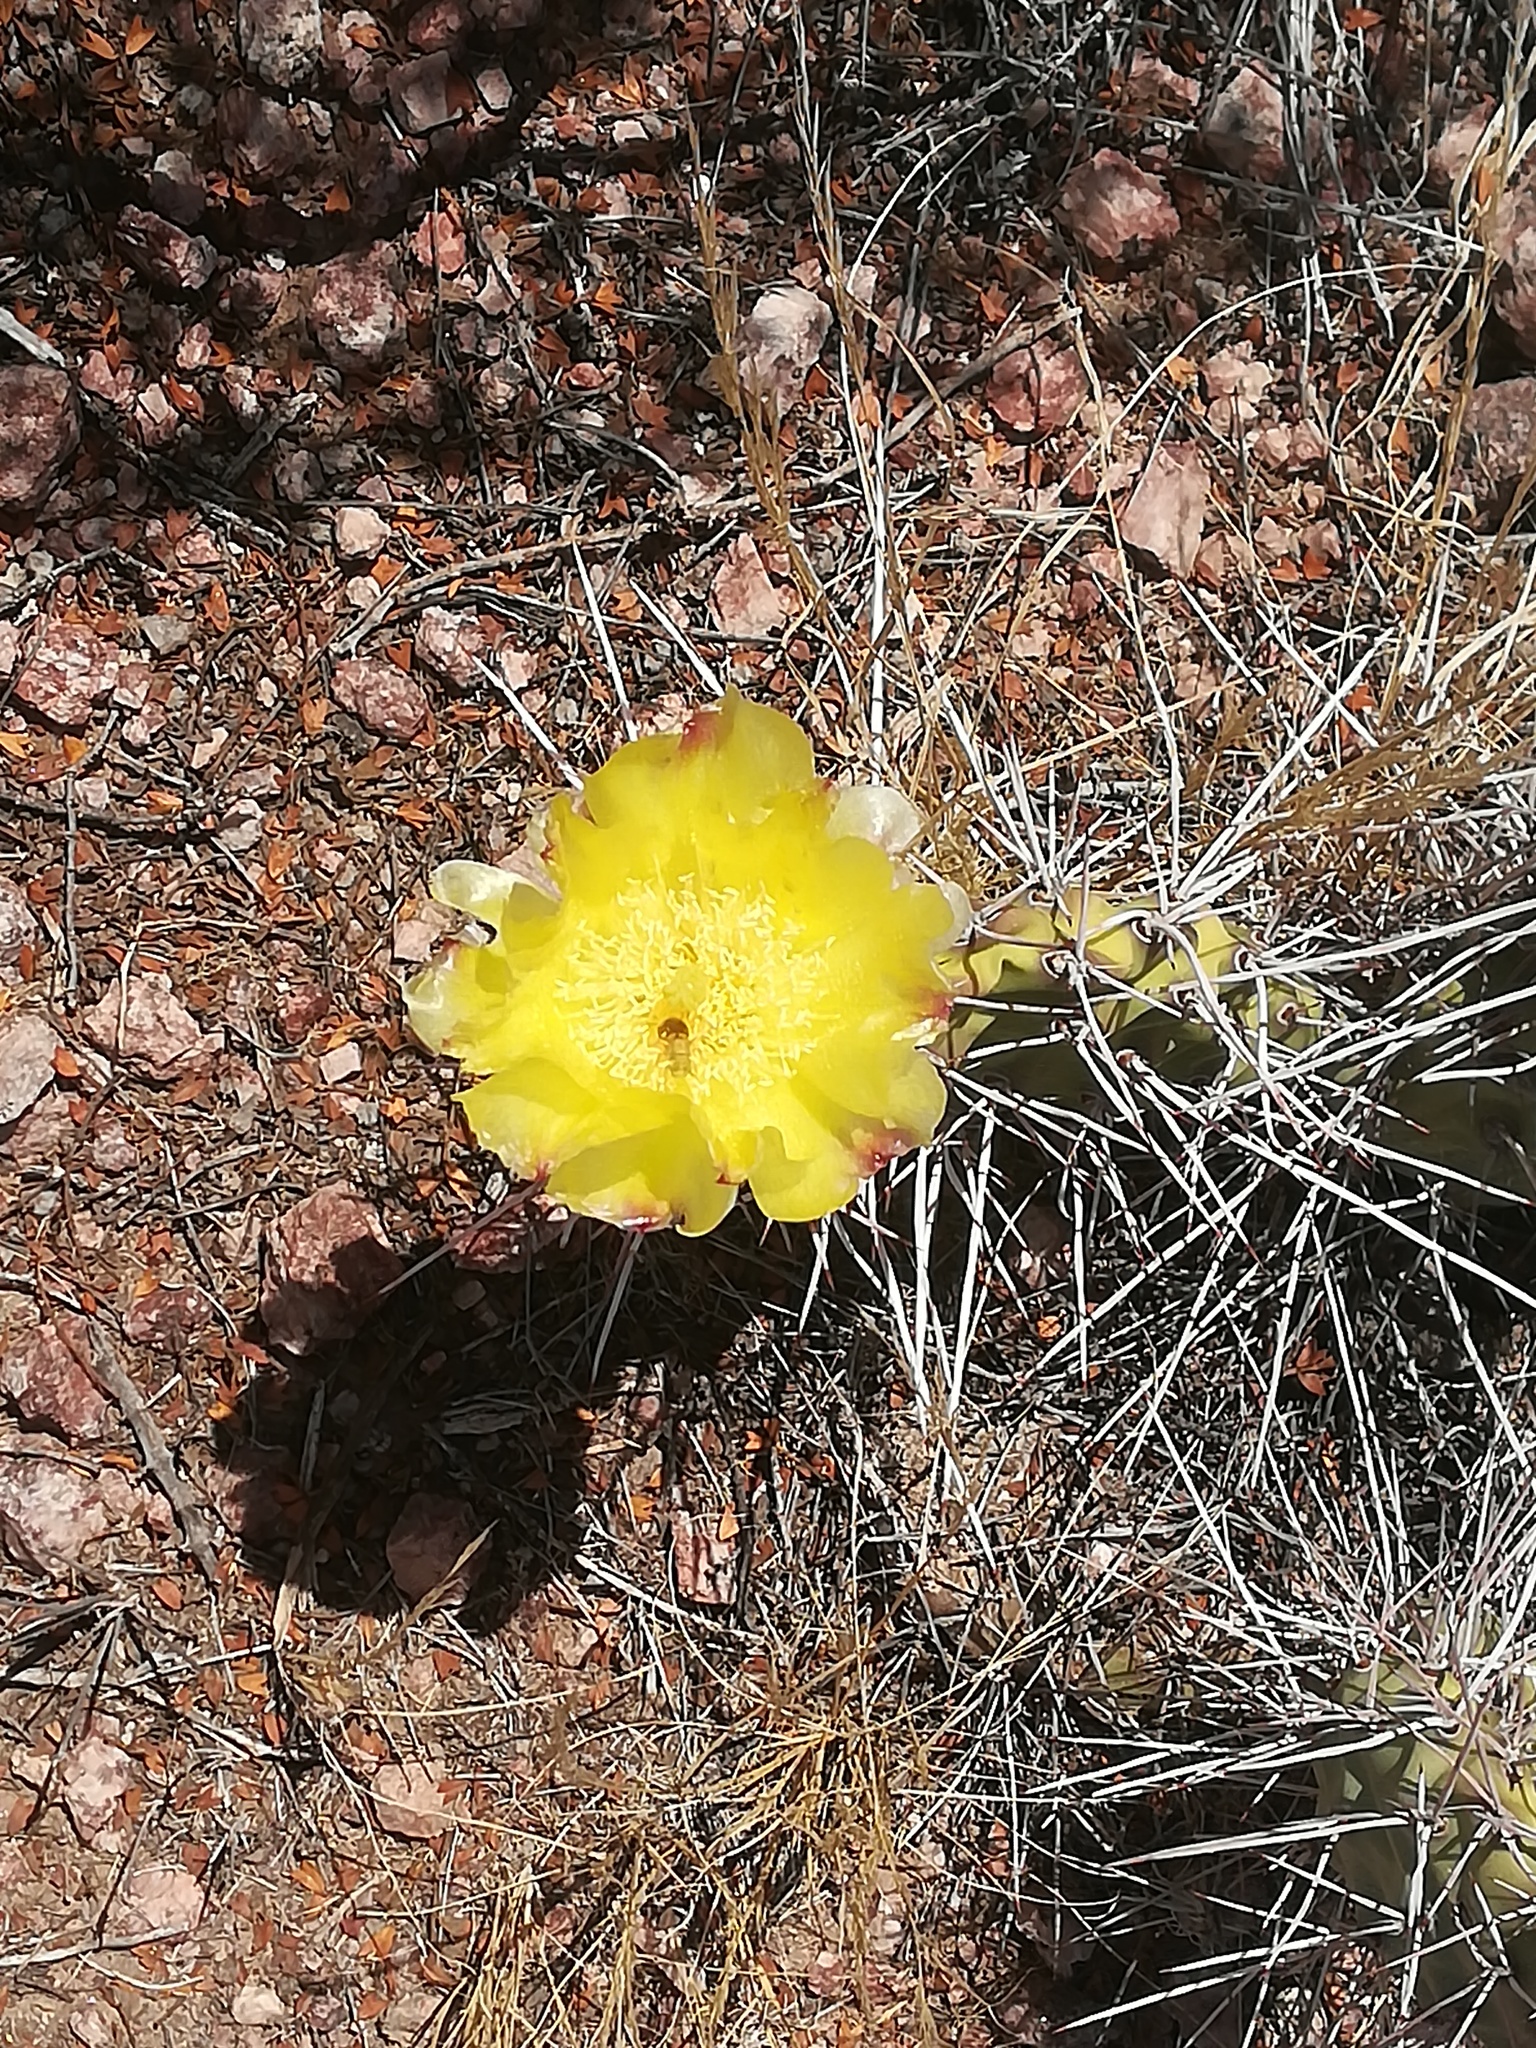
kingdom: Plantae
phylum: Tracheophyta
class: Magnoliopsida
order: Caryophyllales
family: Cactaceae
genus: Opuntia
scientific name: Opuntia sulphurea
